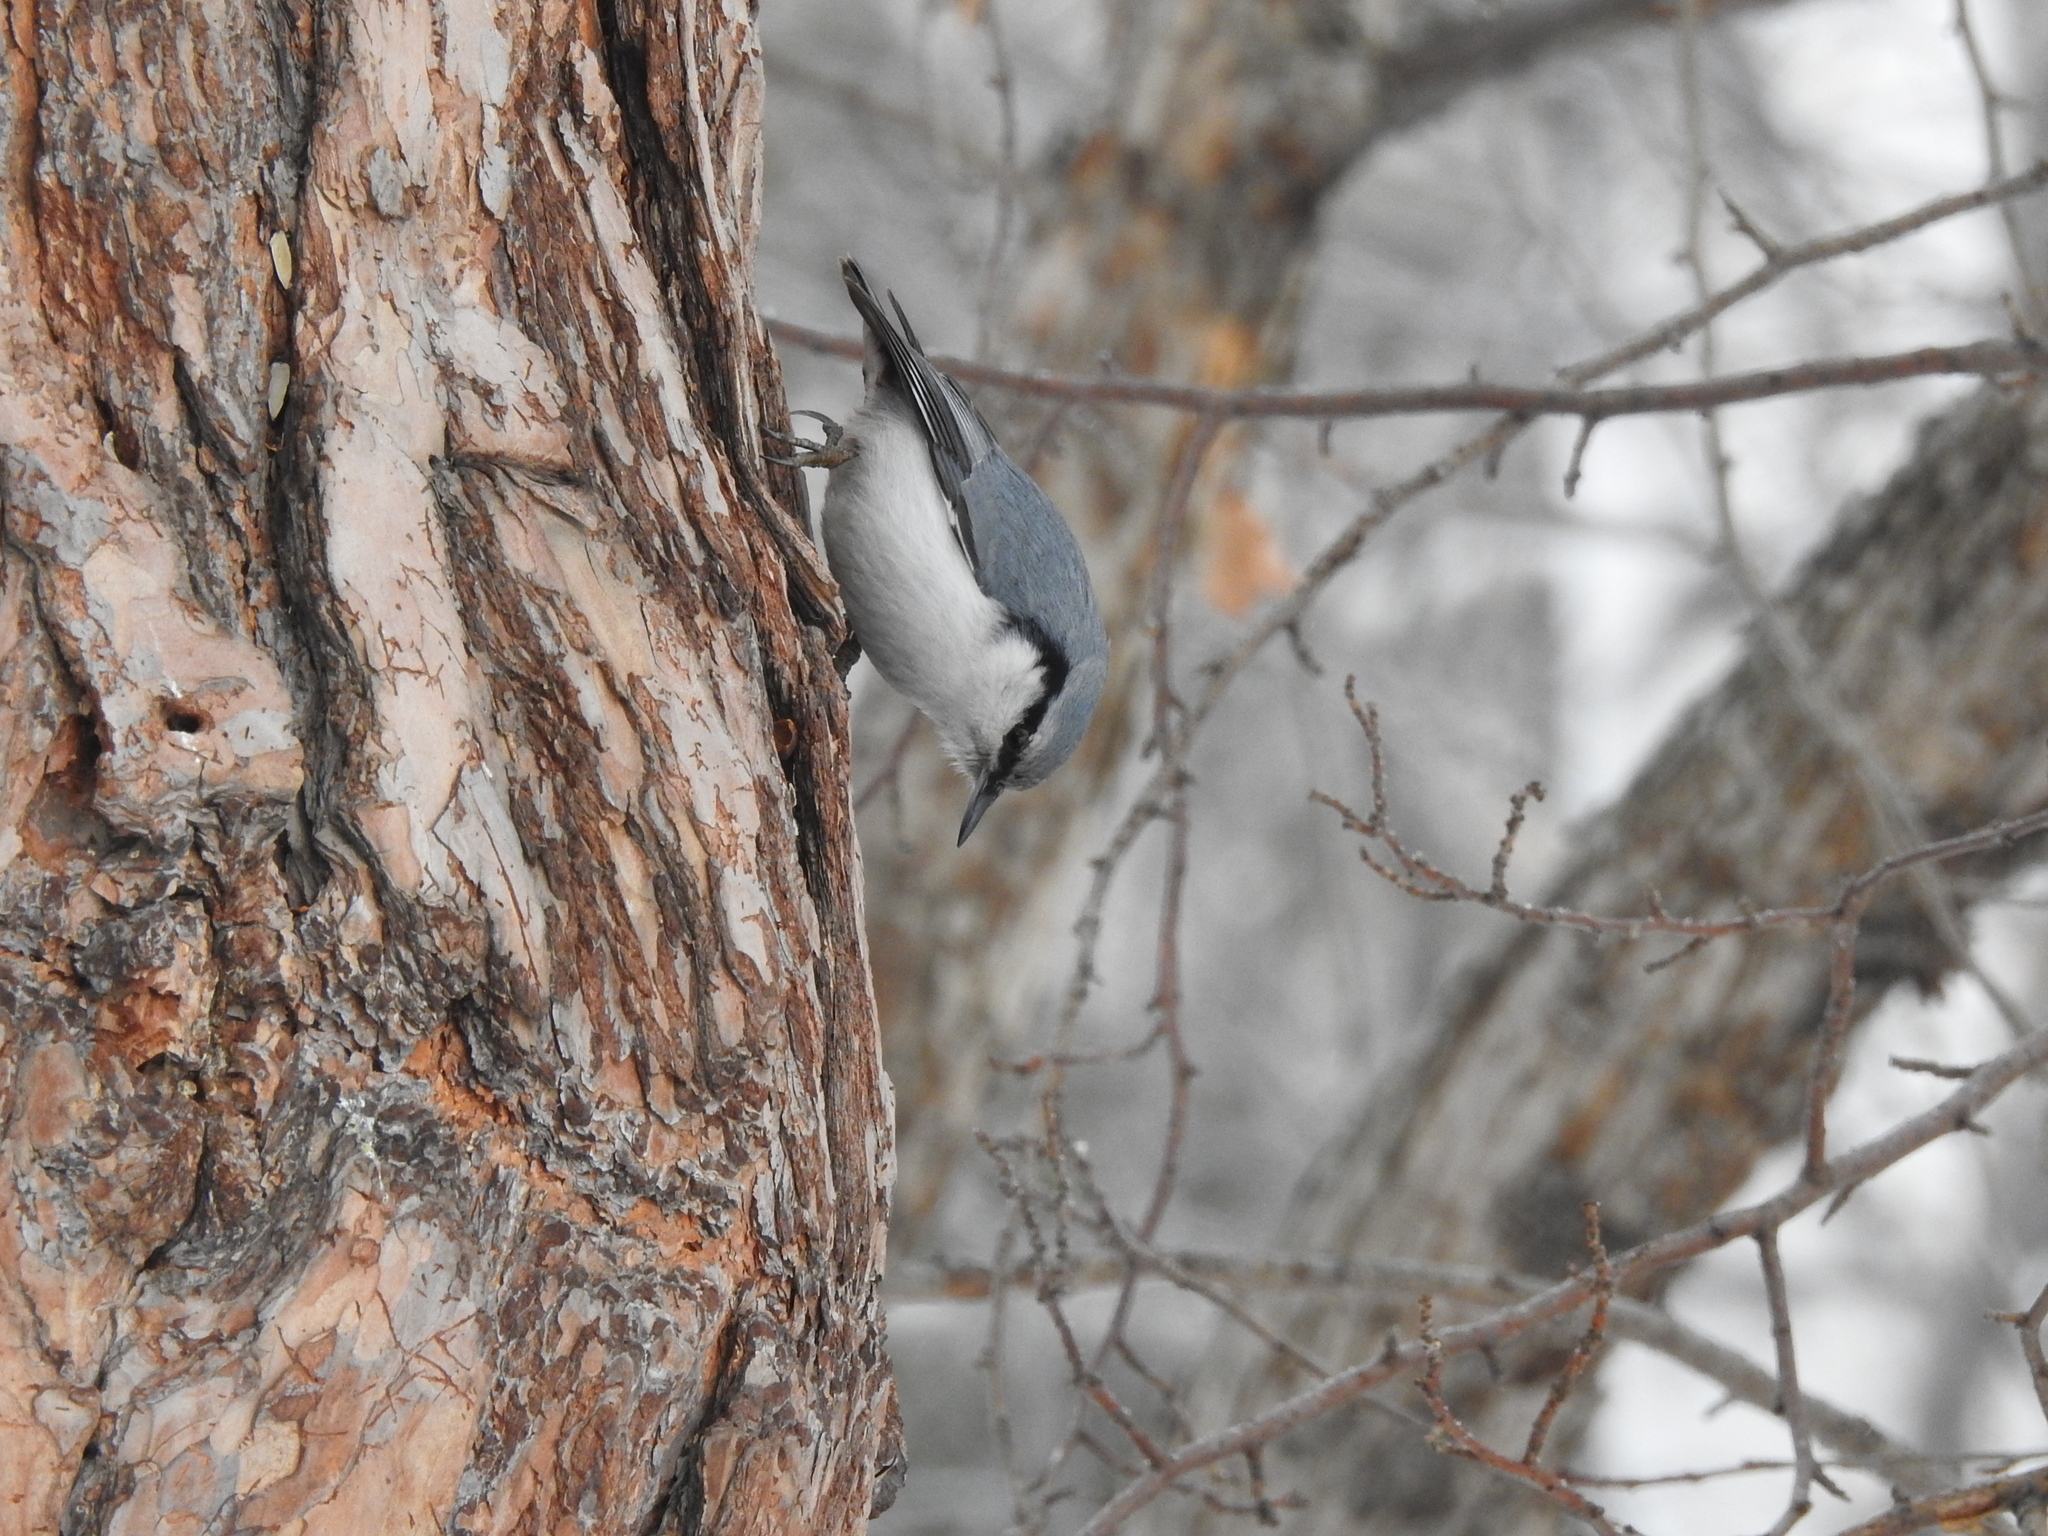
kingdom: Animalia
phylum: Chordata
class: Aves
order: Passeriformes
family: Sittidae
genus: Sitta
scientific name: Sitta europaea
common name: Eurasian nuthatch
